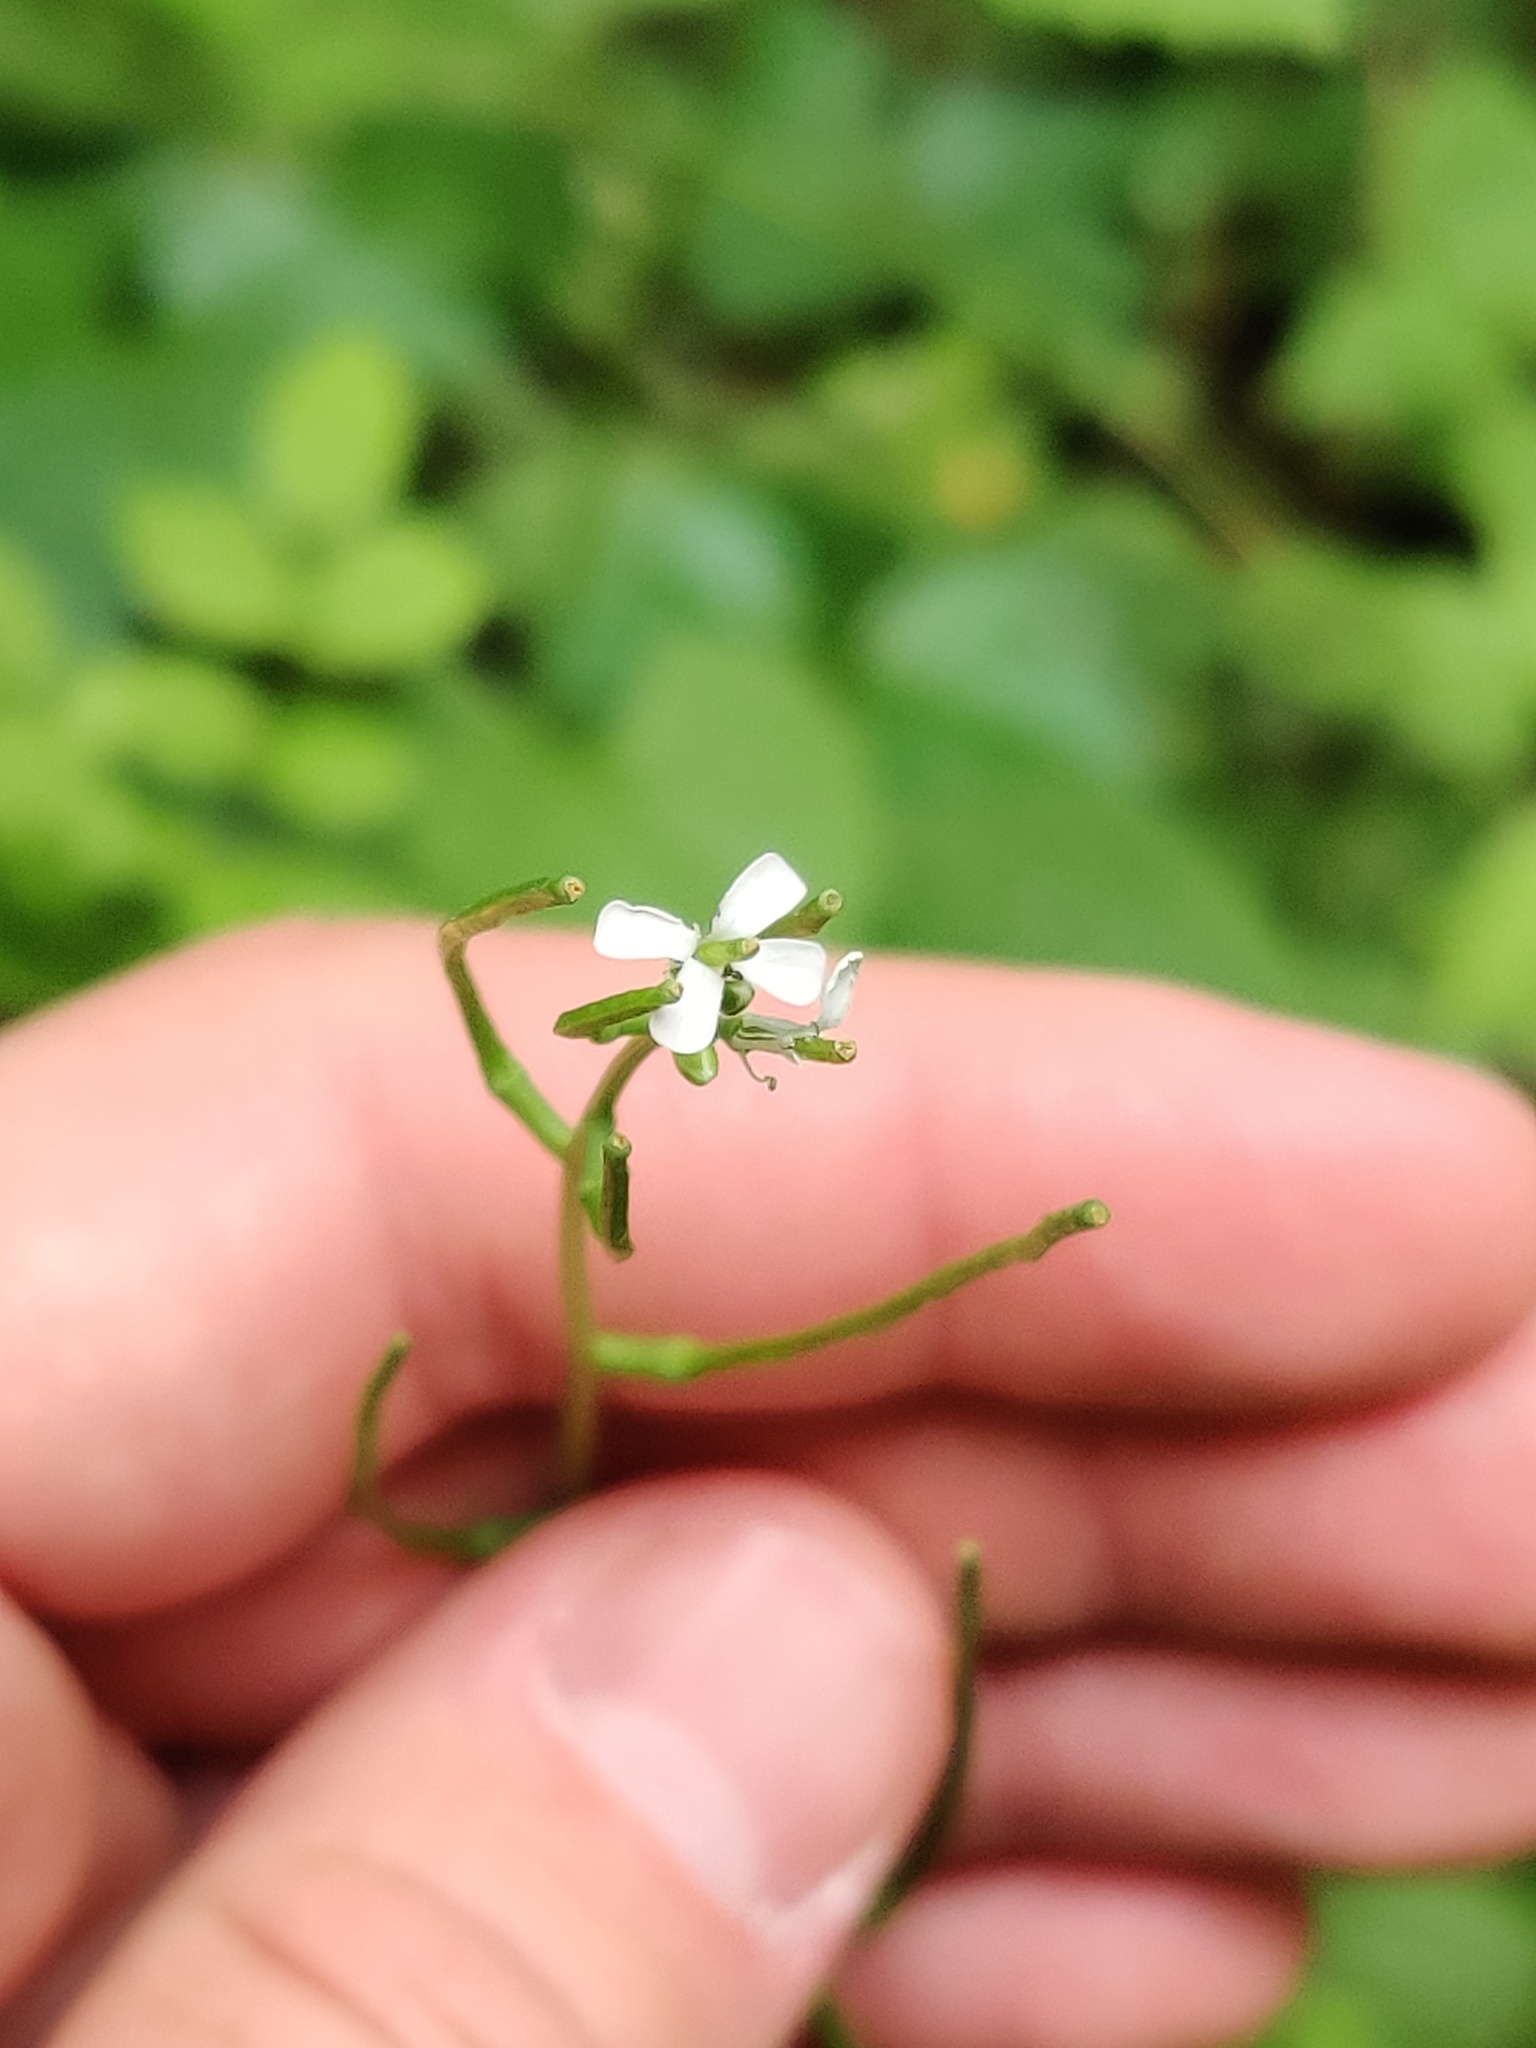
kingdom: Plantae
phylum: Tracheophyta
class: Magnoliopsida
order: Brassicales
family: Brassicaceae
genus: Alliaria
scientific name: Alliaria petiolata
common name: Garlic mustard
